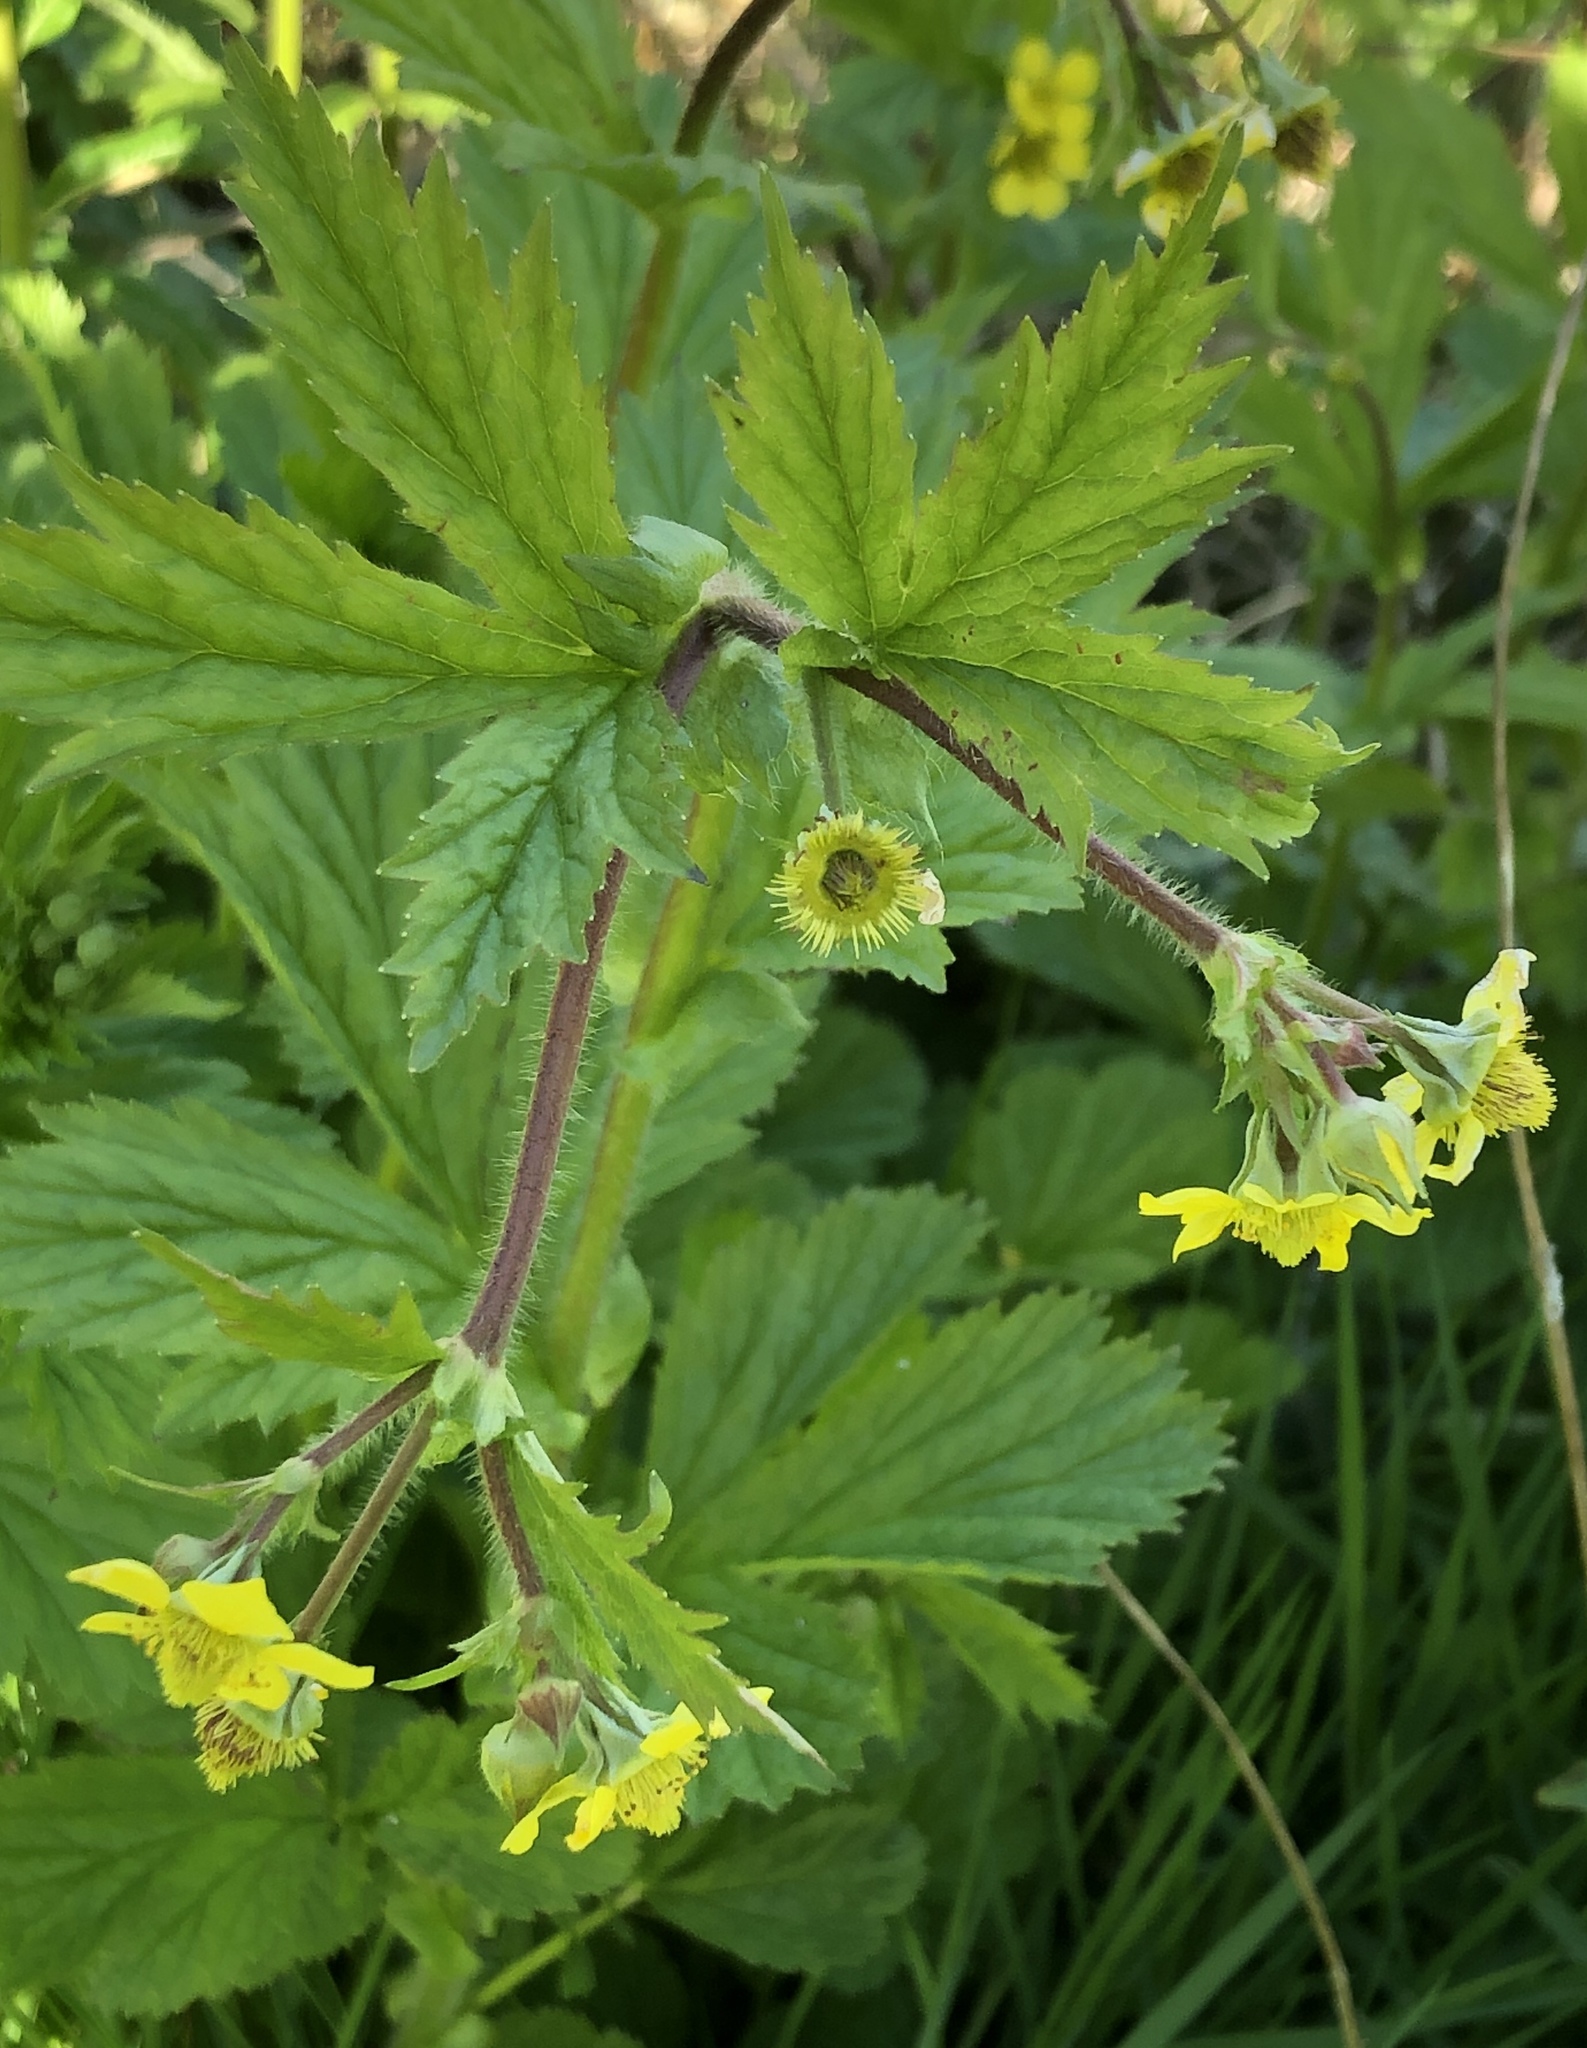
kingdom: Plantae
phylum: Tracheophyta
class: Magnoliopsida
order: Rosales
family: Rosaceae
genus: Geum
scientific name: Geum macrophyllum
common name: Large-leaved avens
